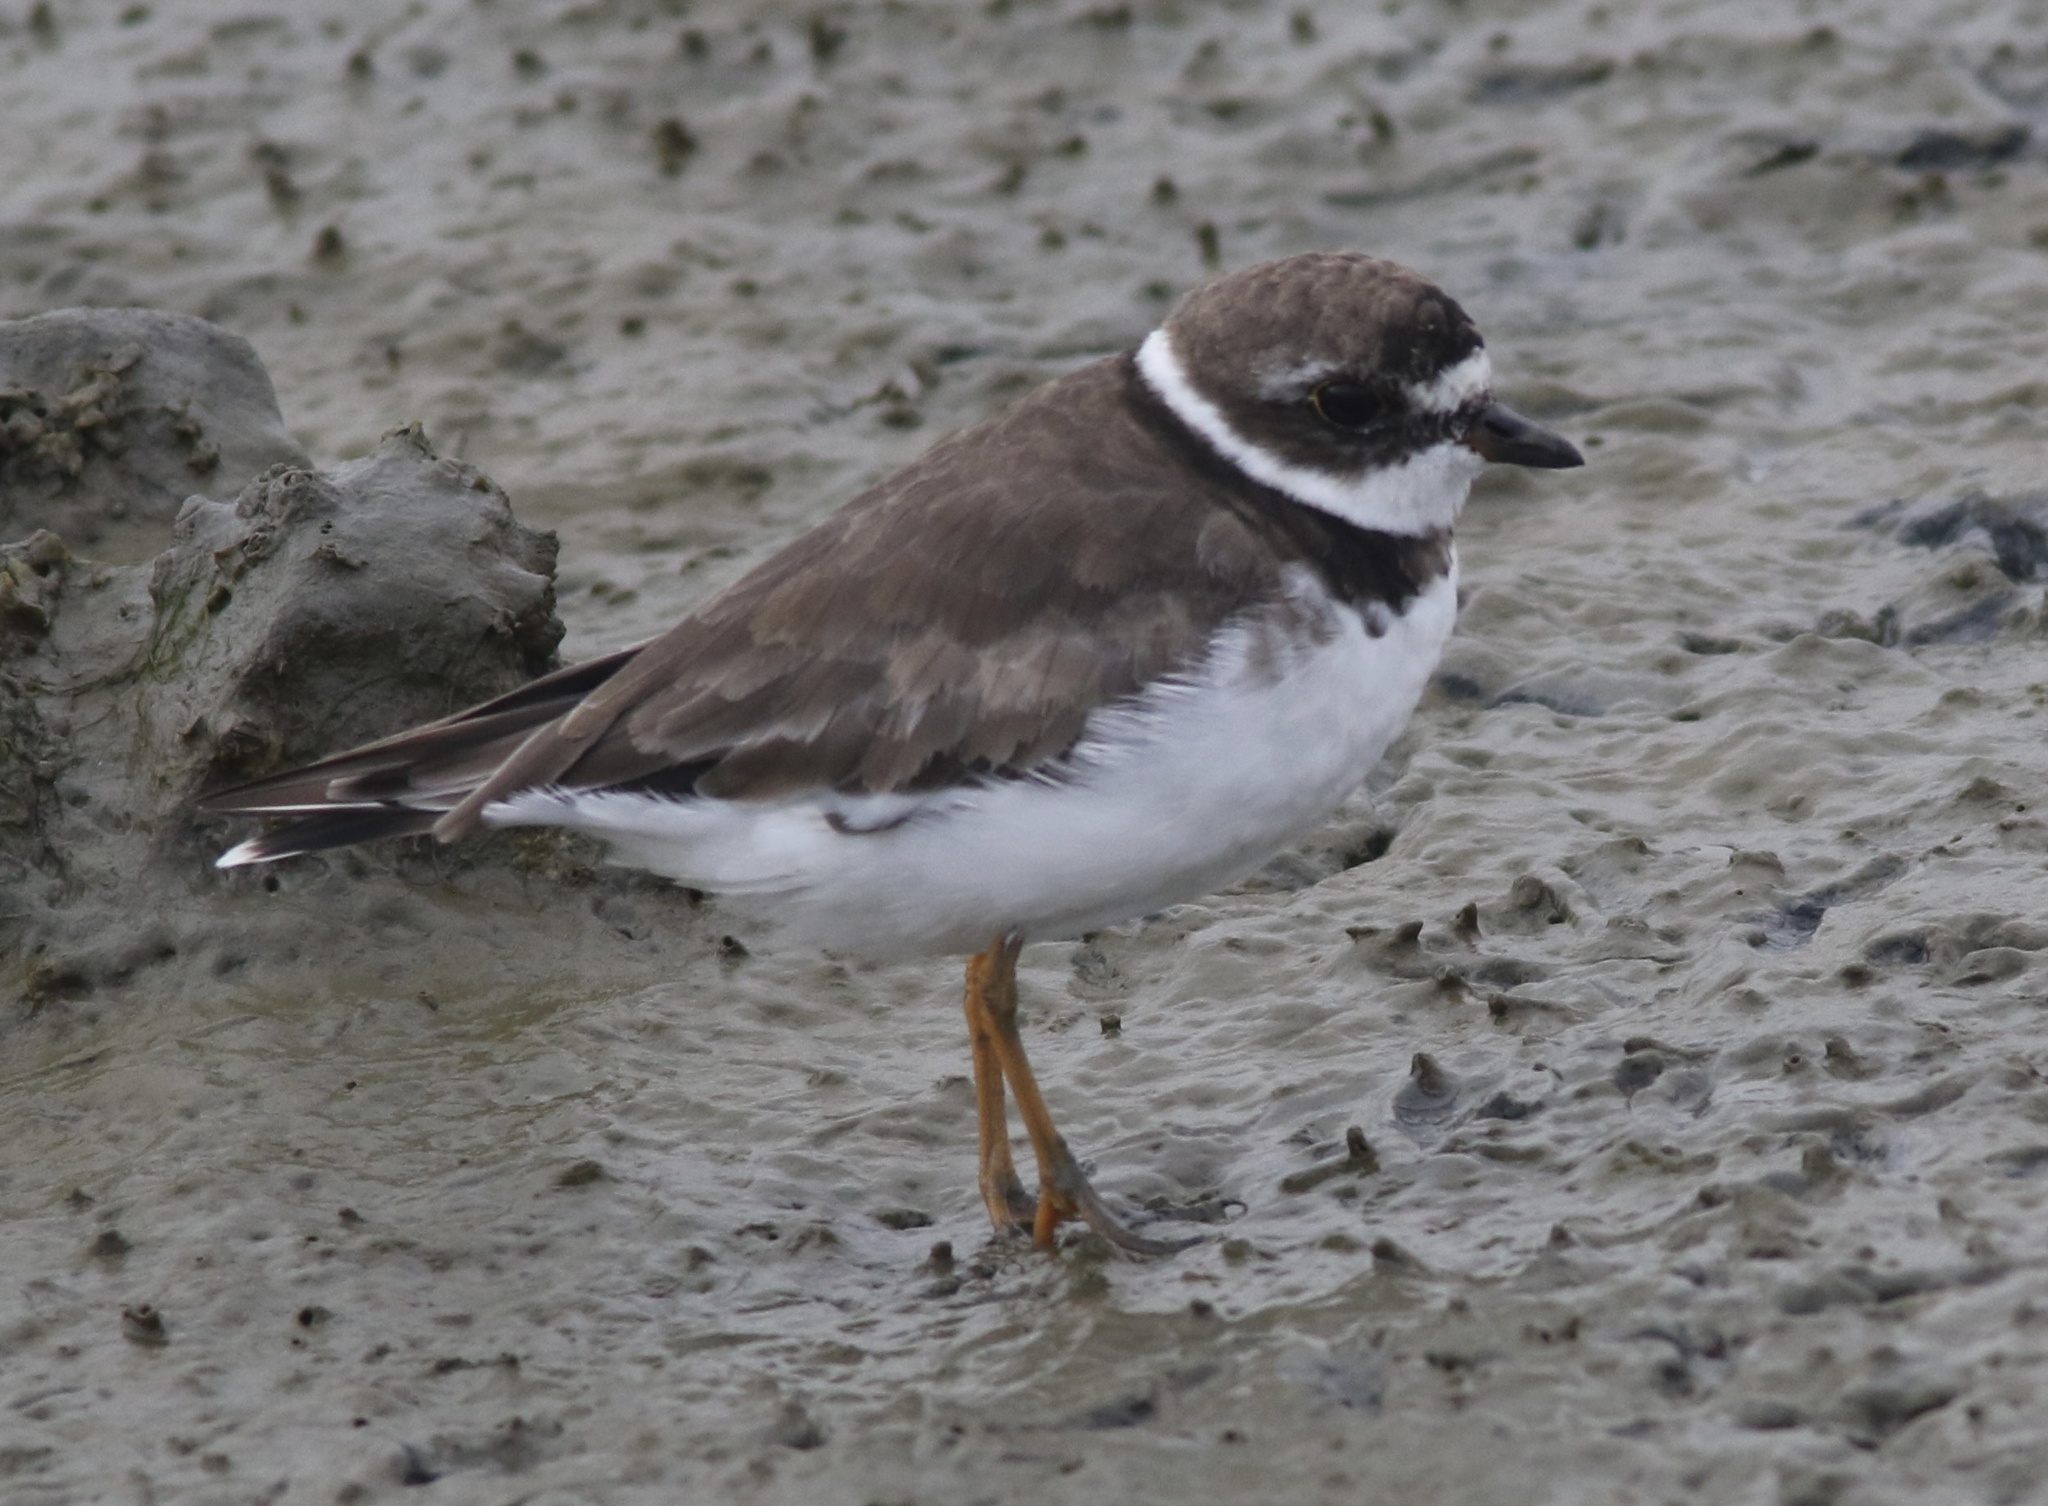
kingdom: Animalia
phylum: Chordata
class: Aves
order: Charadriiformes
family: Charadriidae
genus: Charadrius
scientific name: Charadrius semipalmatus
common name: Semipalmated plover
